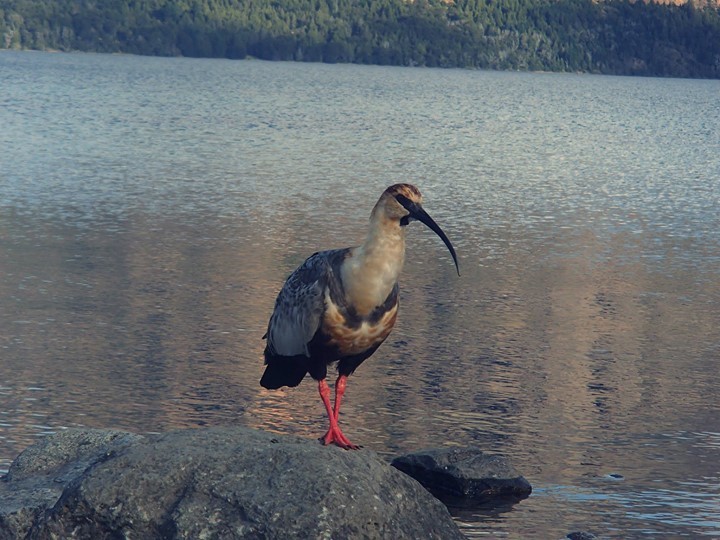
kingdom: Animalia
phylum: Chordata
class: Aves
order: Pelecaniformes
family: Threskiornithidae
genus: Theristicus
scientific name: Theristicus melanopis
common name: Black-faced ibis
